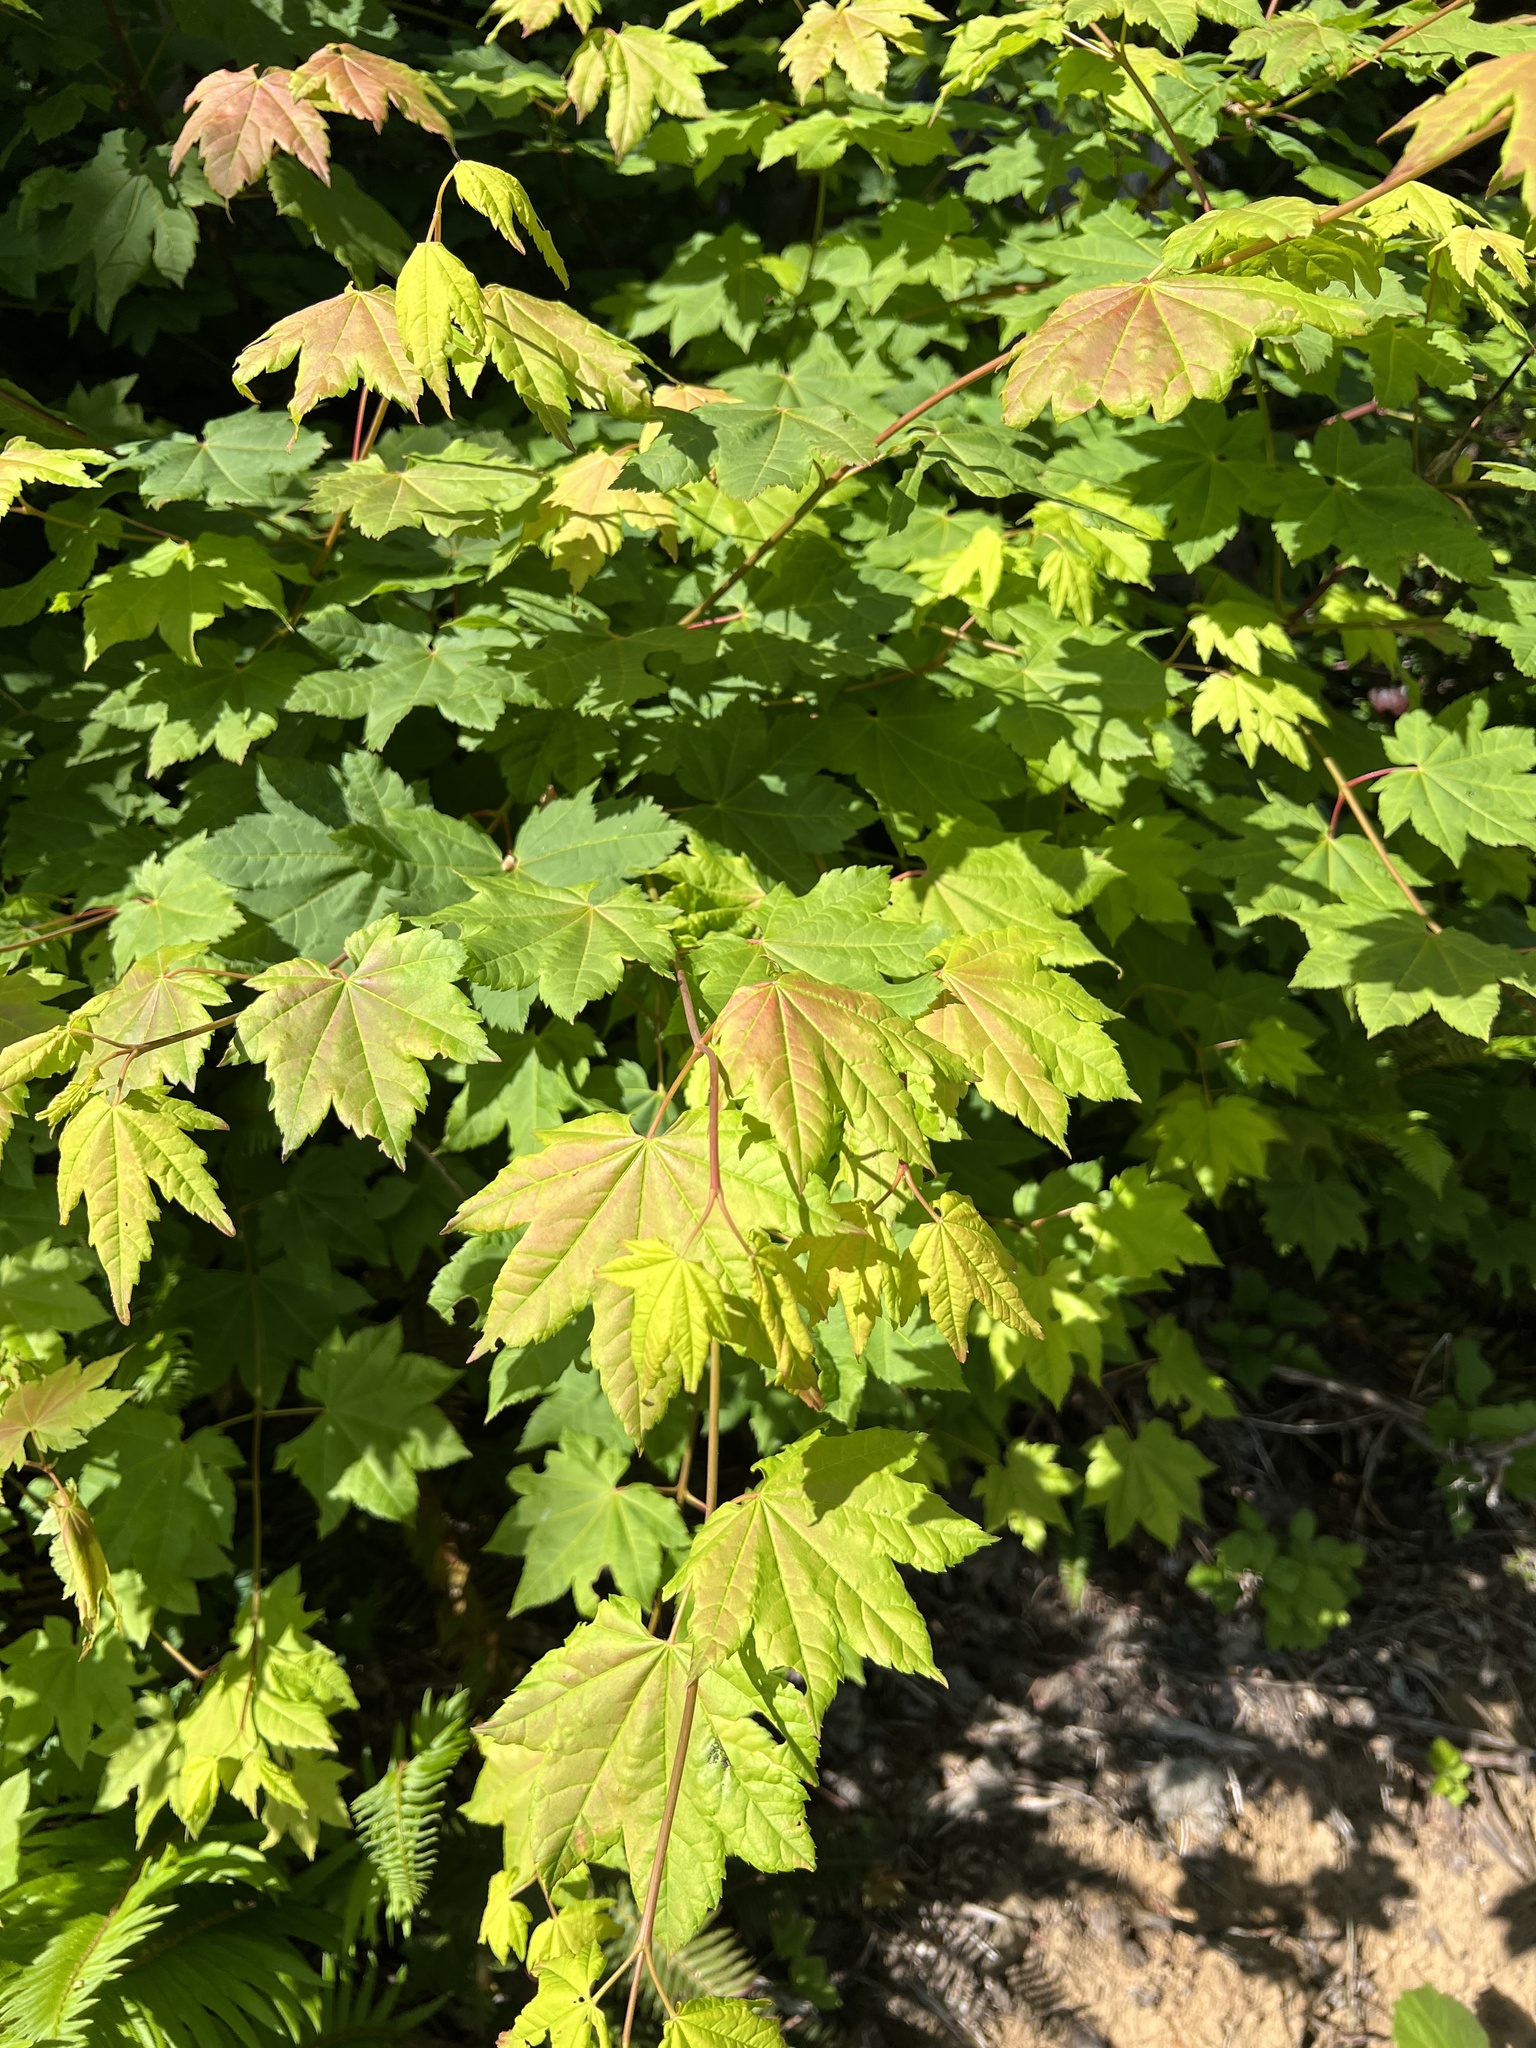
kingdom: Plantae
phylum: Tracheophyta
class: Magnoliopsida
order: Sapindales
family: Sapindaceae
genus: Acer
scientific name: Acer circinatum
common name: Vine maple
